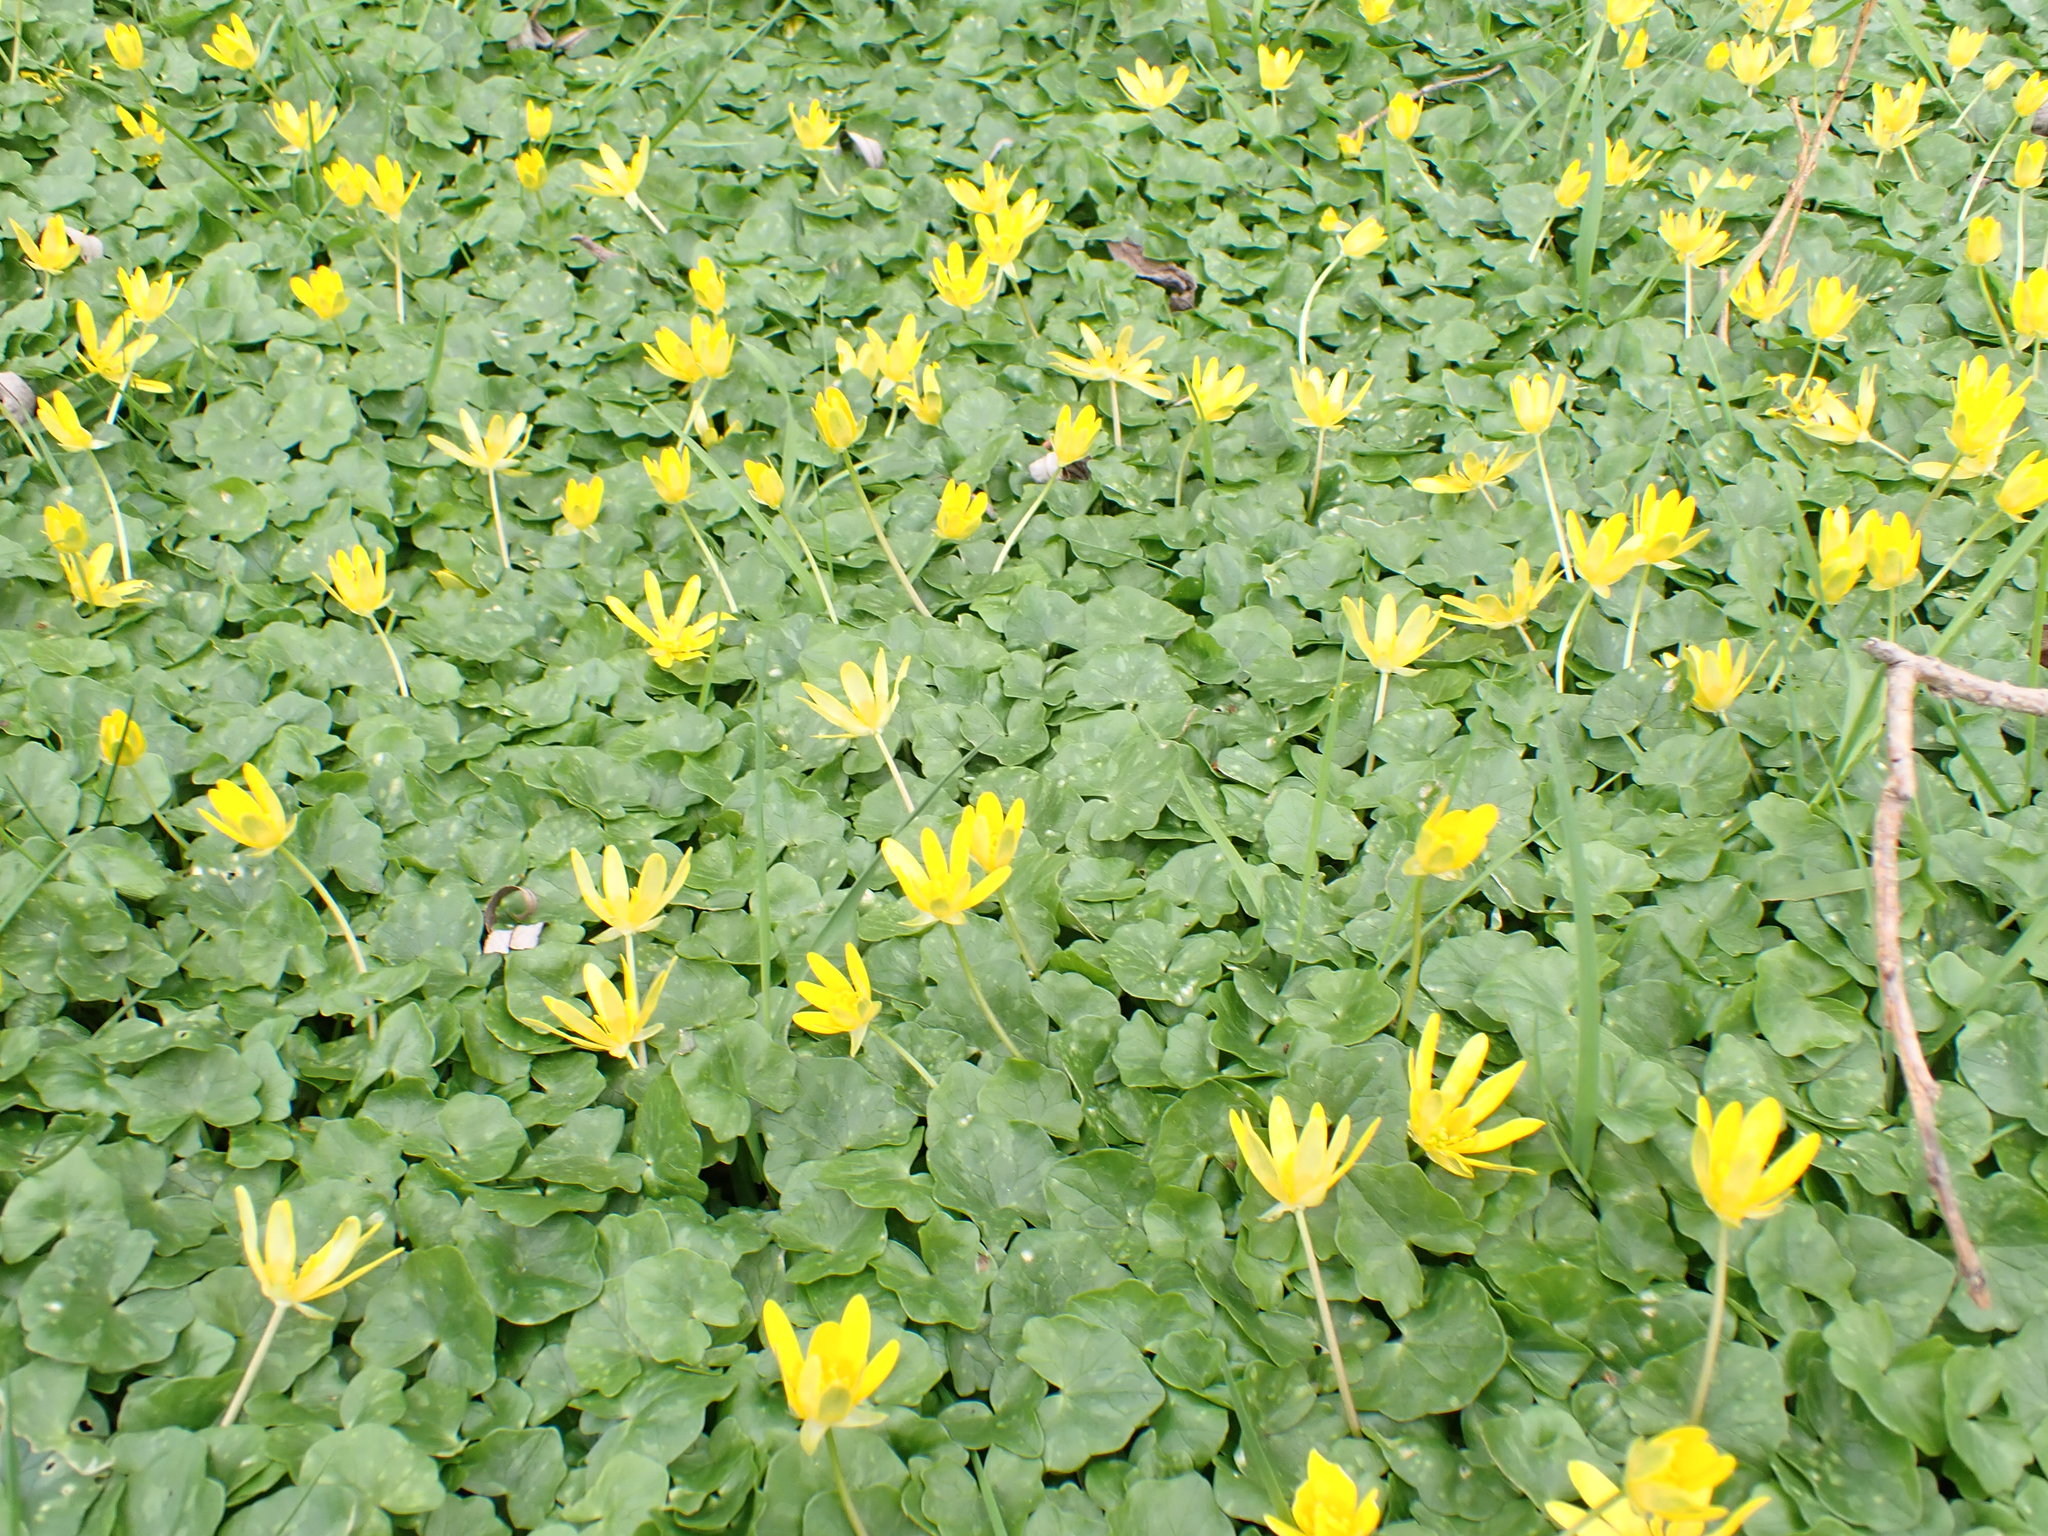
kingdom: Plantae
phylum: Tracheophyta
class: Magnoliopsida
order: Ranunculales
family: Ranunculaceae
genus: Ficaria
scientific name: Ficaria verna
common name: Lesser celandine
